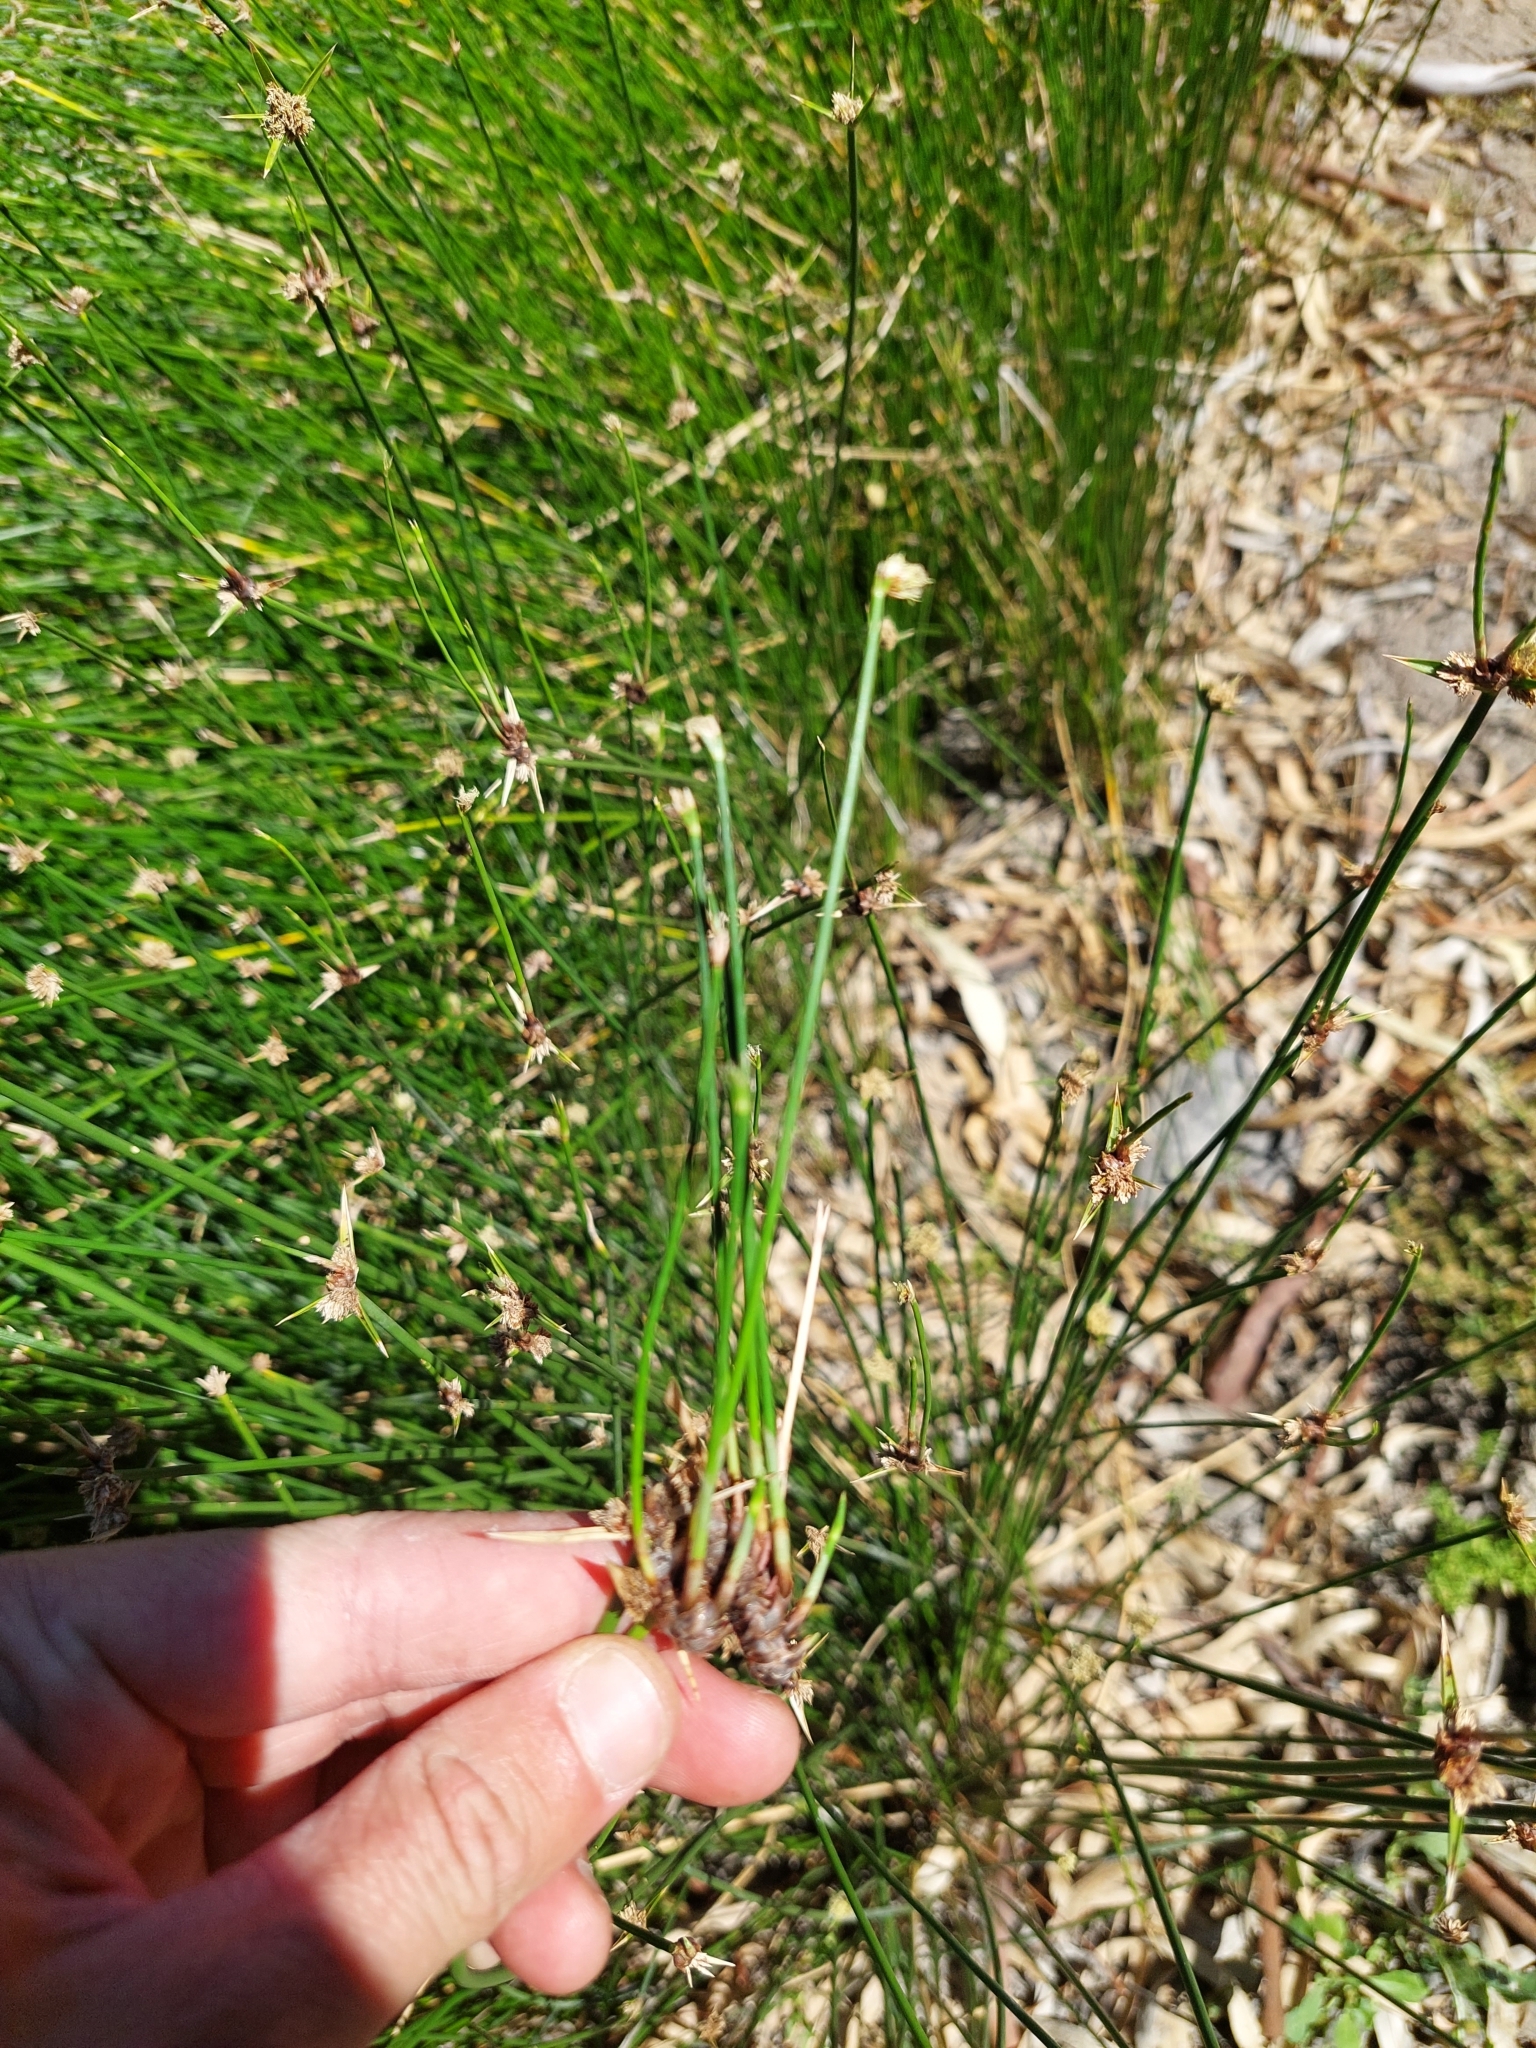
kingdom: Plantae
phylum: Tracheophyta
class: Liliopsida
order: Poales
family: Cyperaceae
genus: Cyperus
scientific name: Cyperus gymnocaulos
